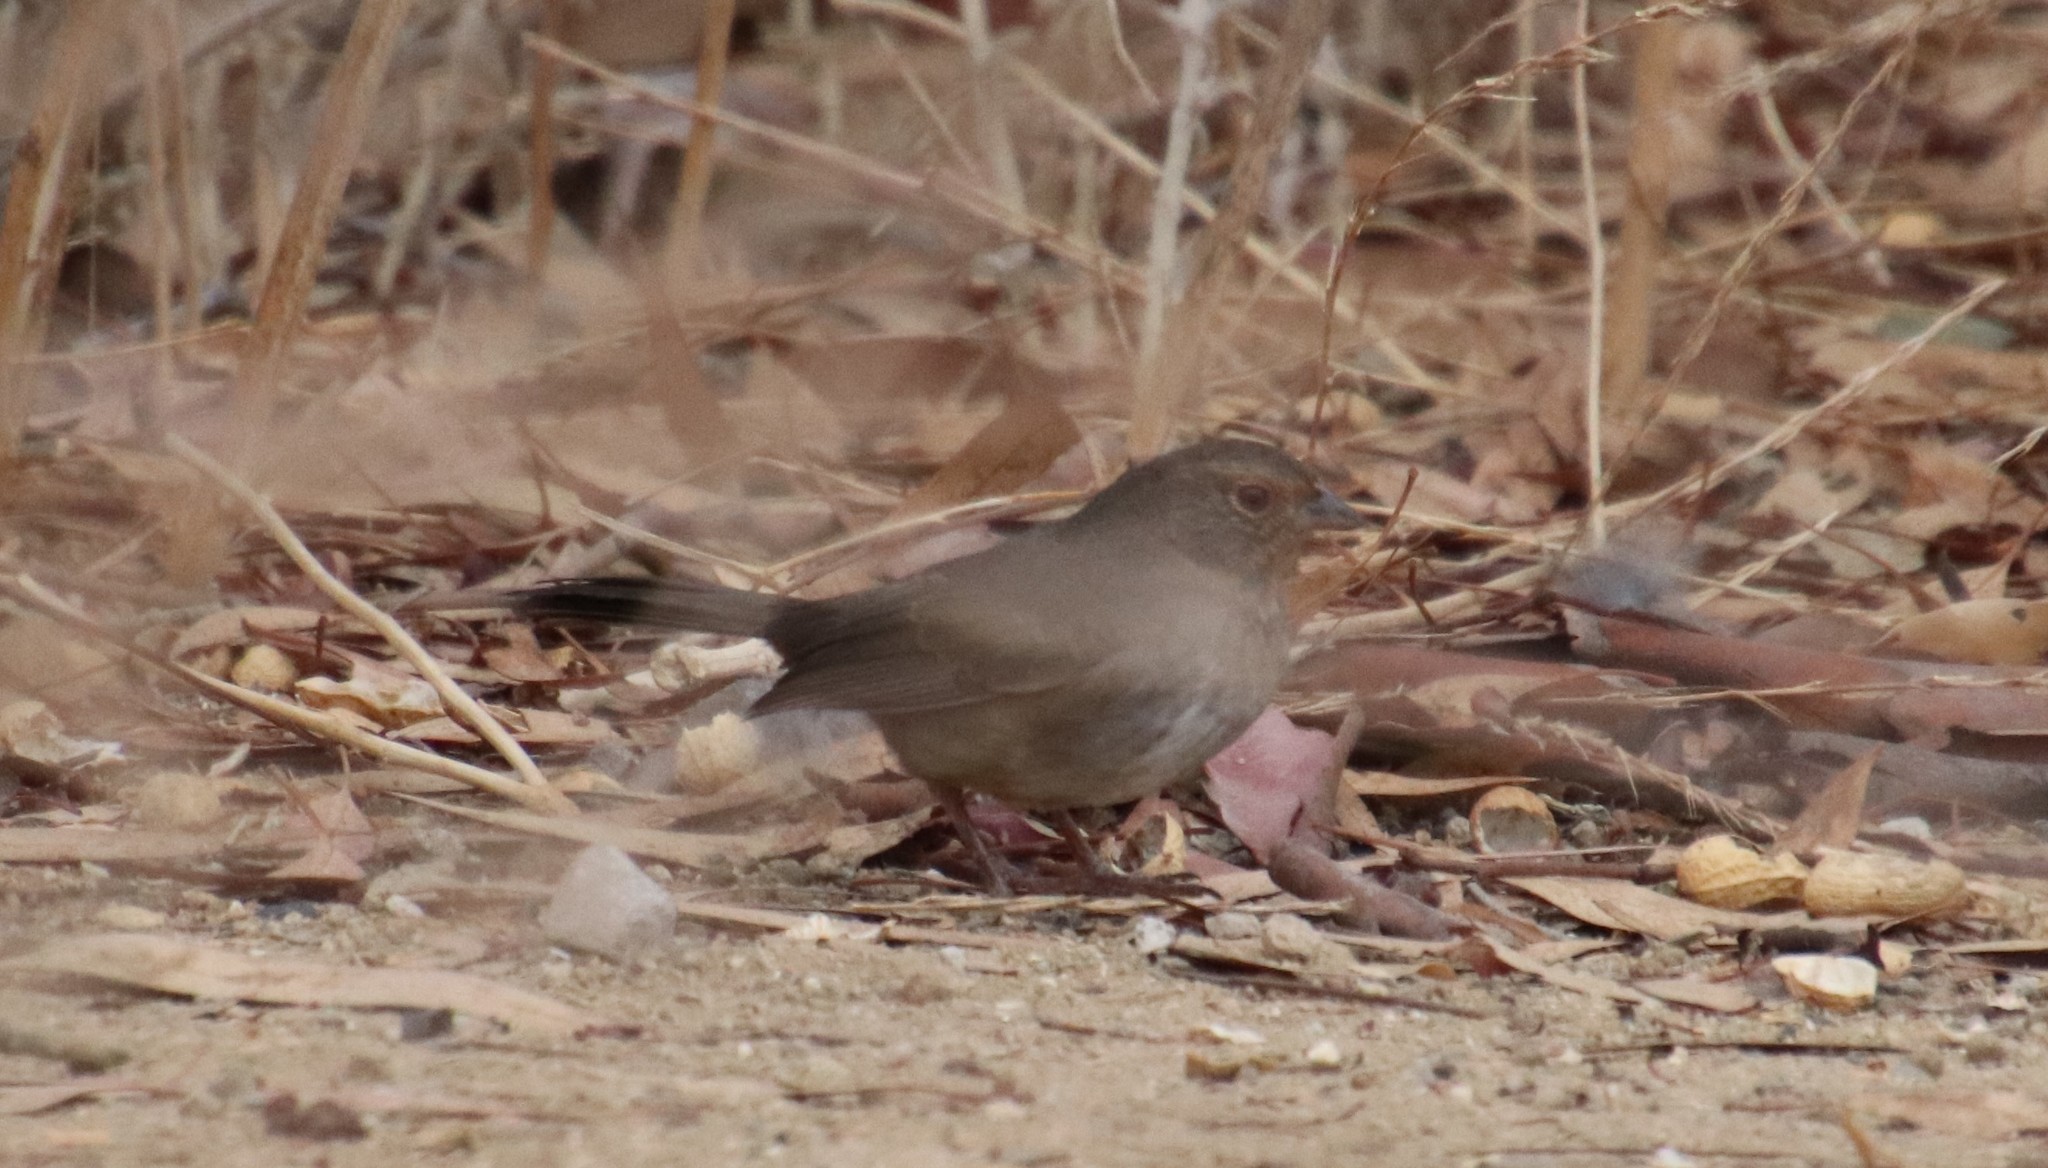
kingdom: Animalia
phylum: Chordata
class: Aves
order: Passeriformes
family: Passerellidae
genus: Melozone
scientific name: Melozone crissalis
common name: California towhee
